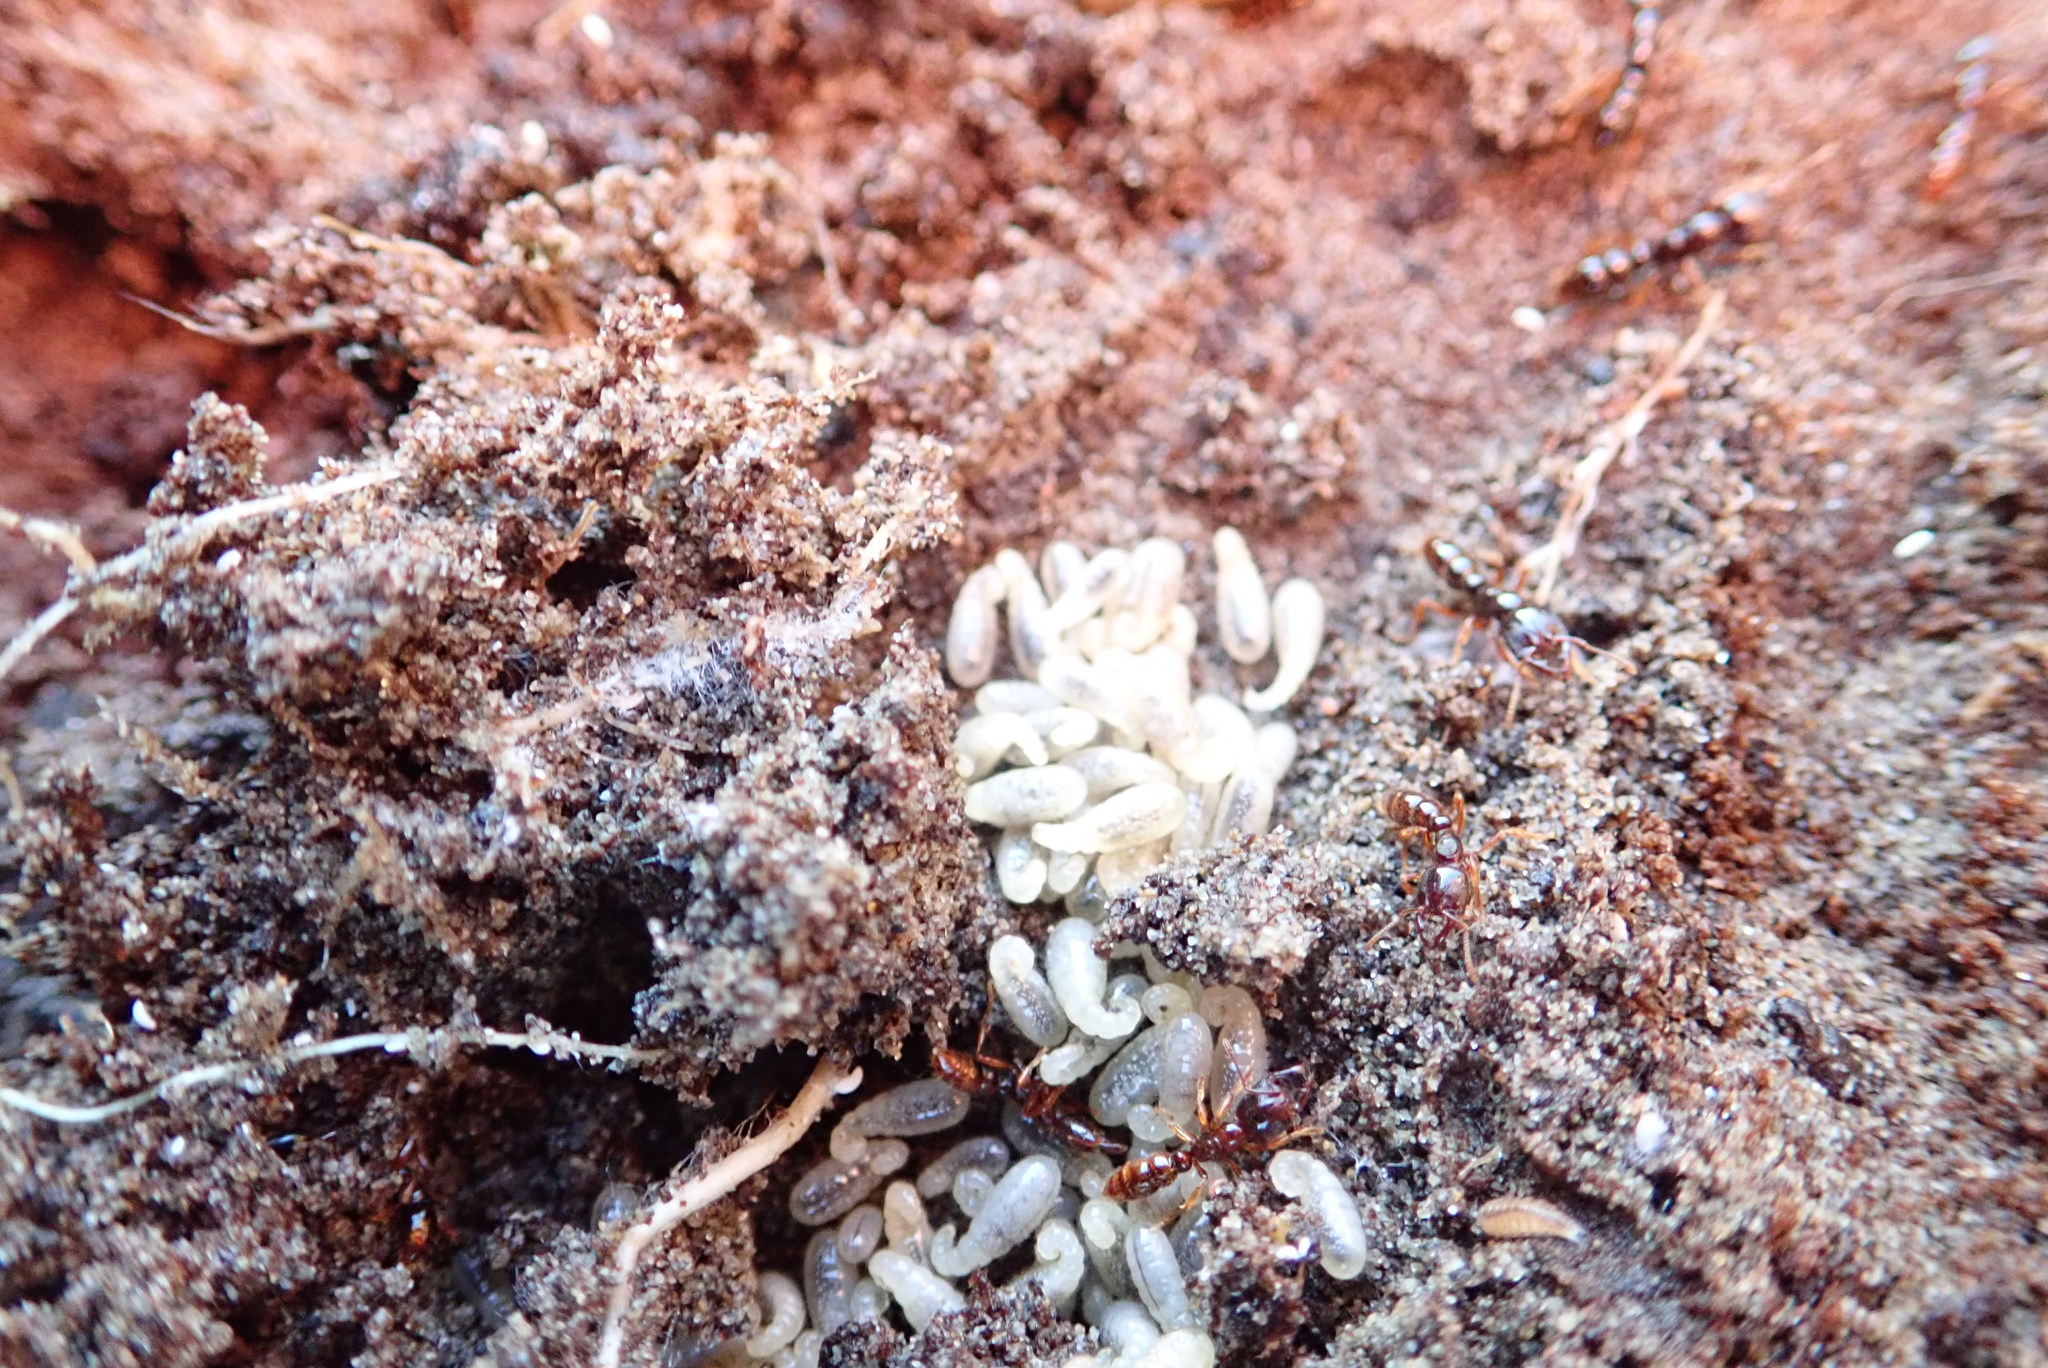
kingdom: Animalia
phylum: Arthropoda
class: Insecta
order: Hymenoptera
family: Formicidae
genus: Amblyopone
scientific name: Amblyopone australis
